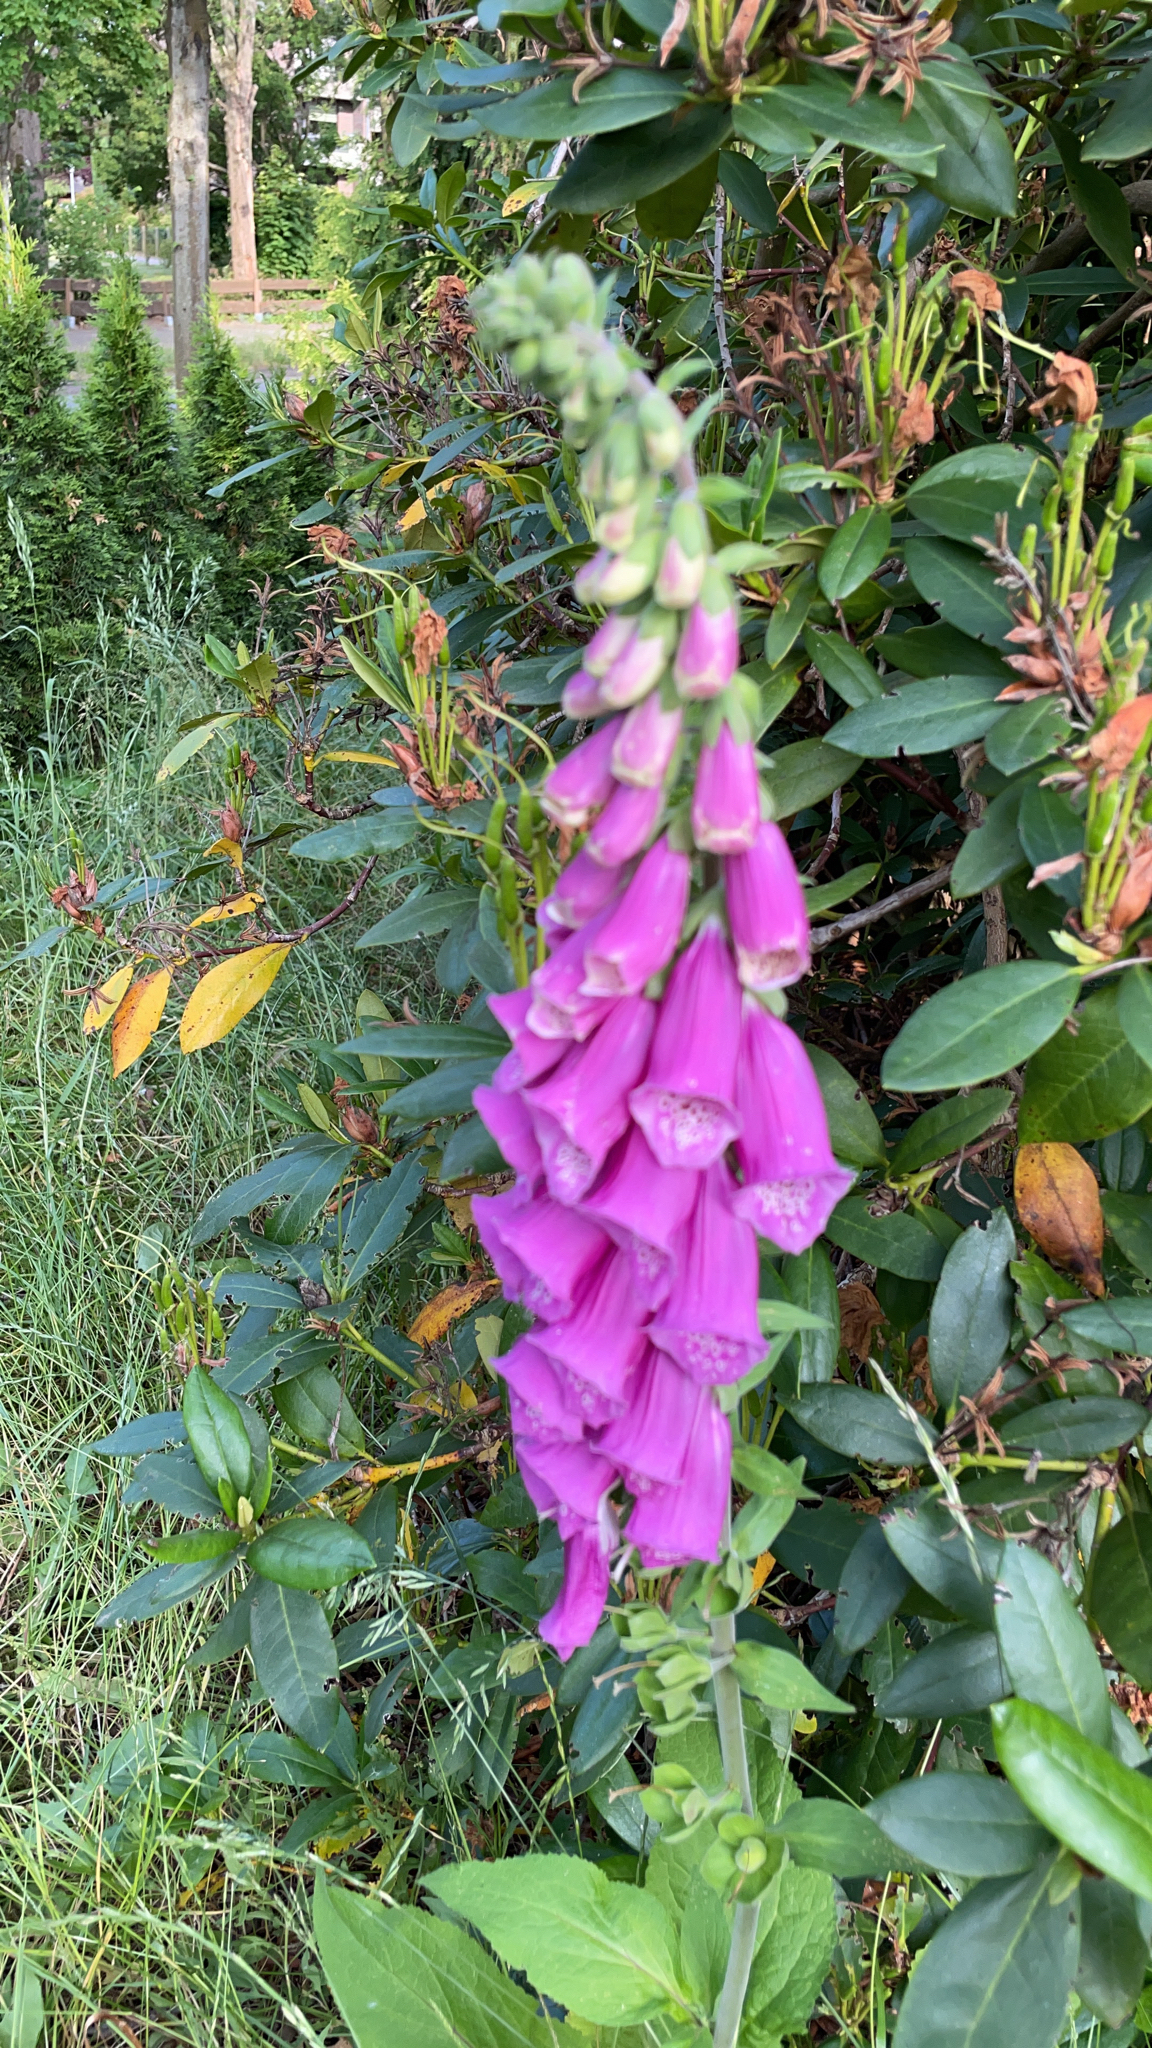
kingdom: Plantae
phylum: Tracheophyta
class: Magnoliopsida
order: Lamiales
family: Plantaginaceae
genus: Digitalis
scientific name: Digitalis purpurea
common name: Foxglove
